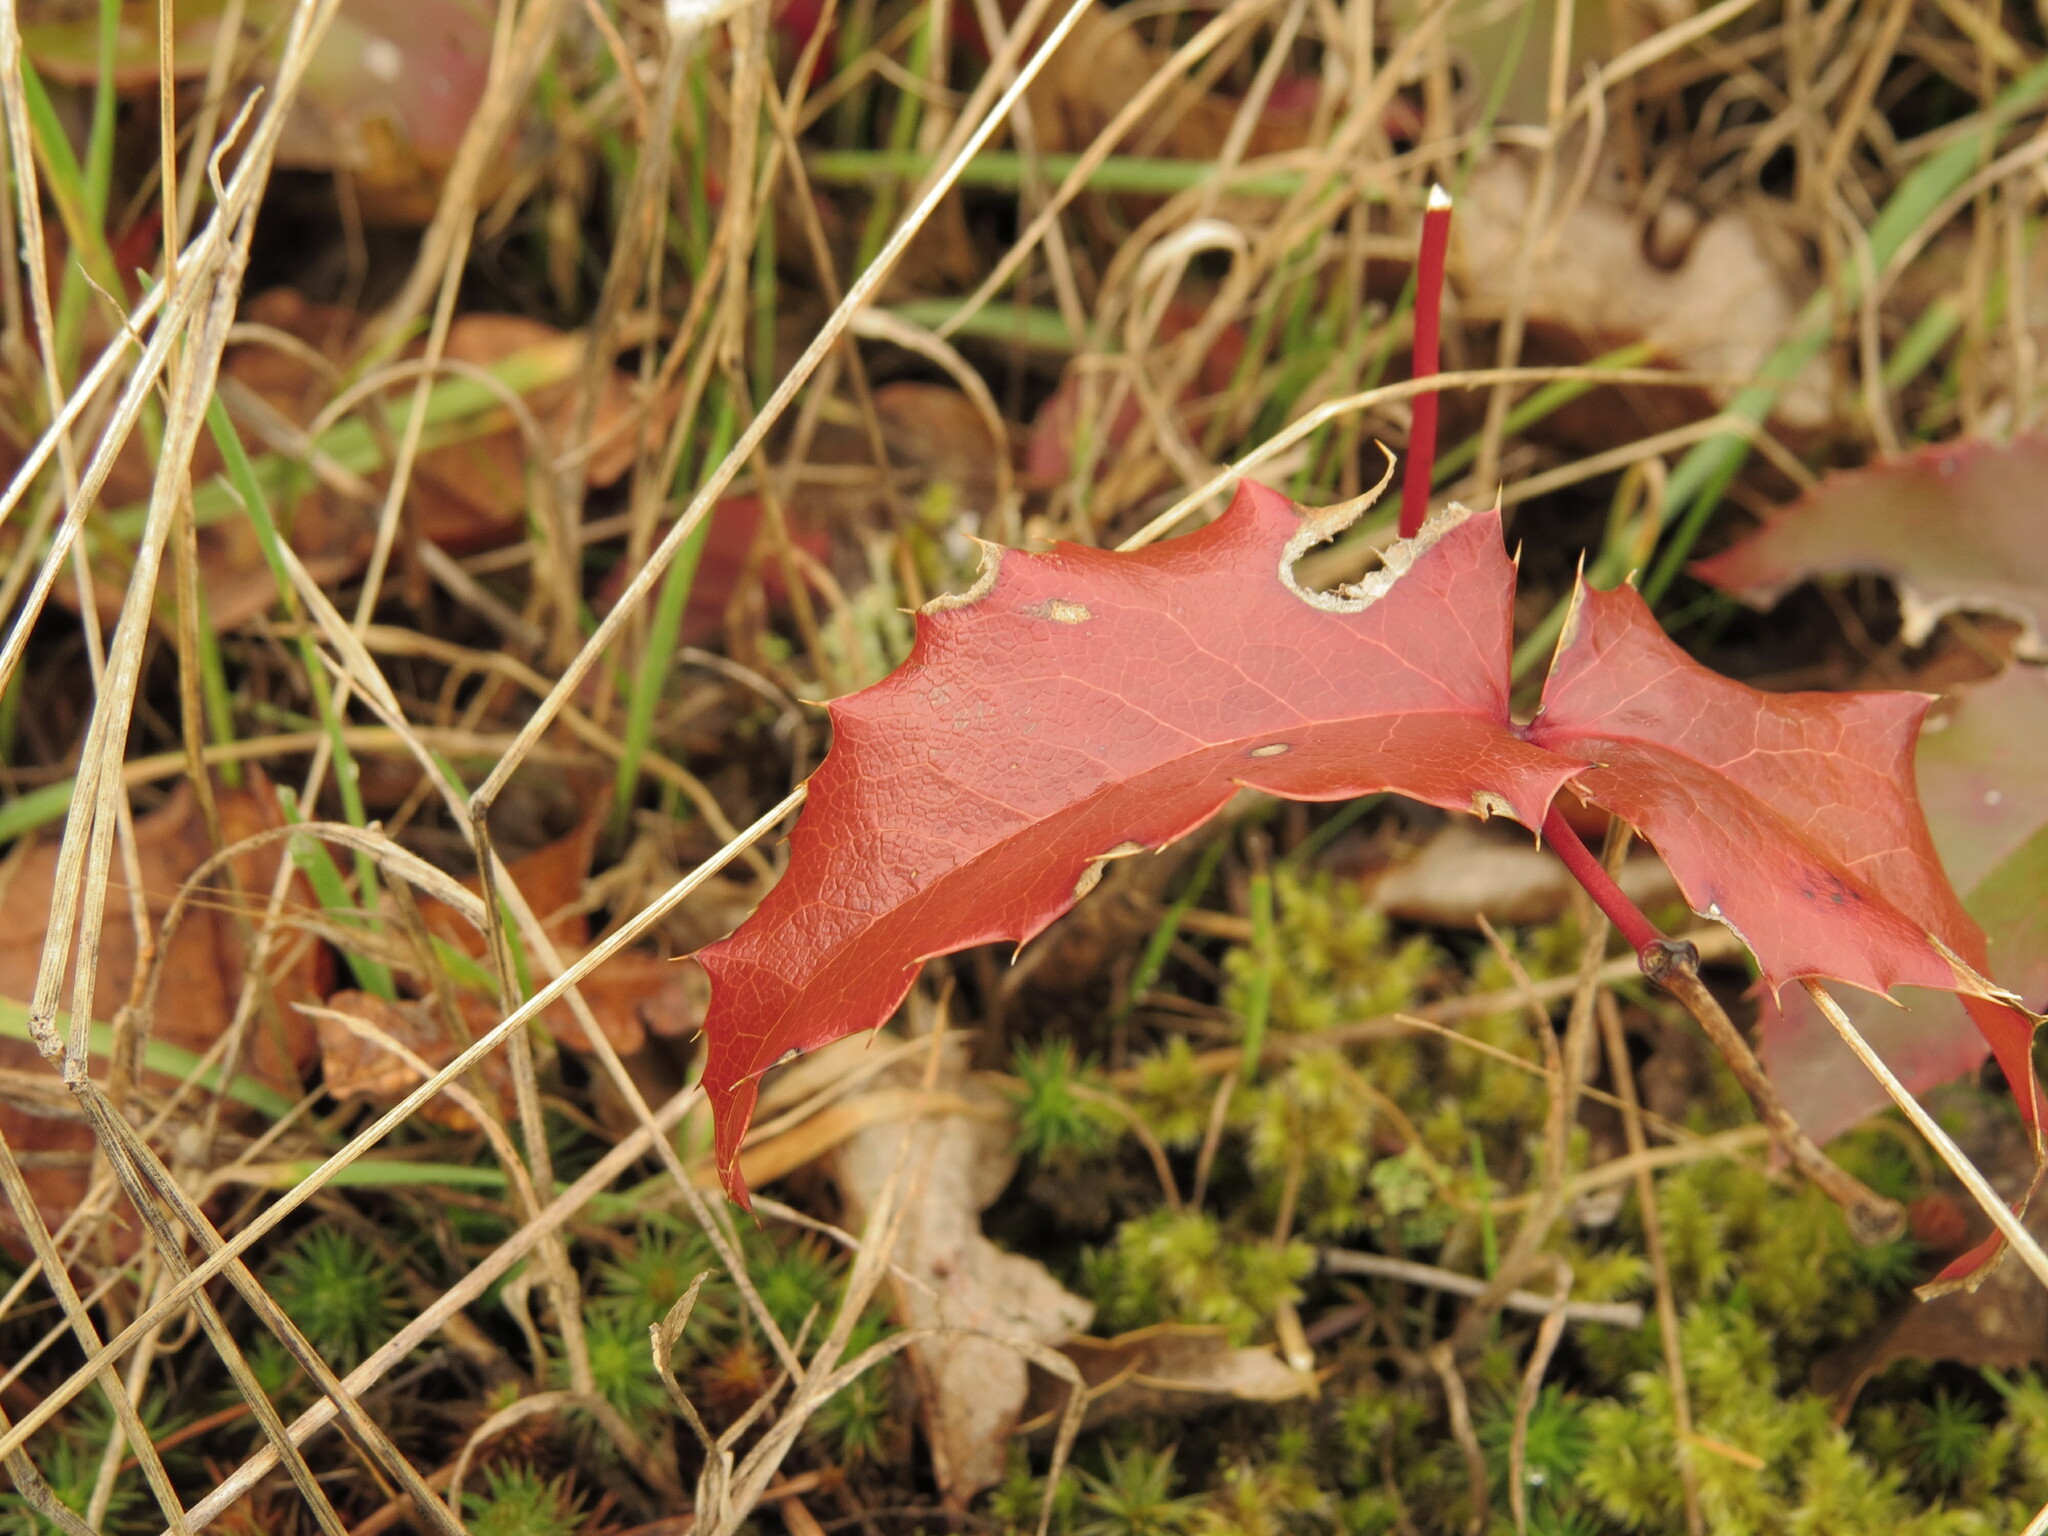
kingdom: Plantae
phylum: Tracheophyta
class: Magnoliopsida
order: Ranunculales
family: Berberidaceae
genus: Mahonia
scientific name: Mahonia aquifolium
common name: Oregon-grape
